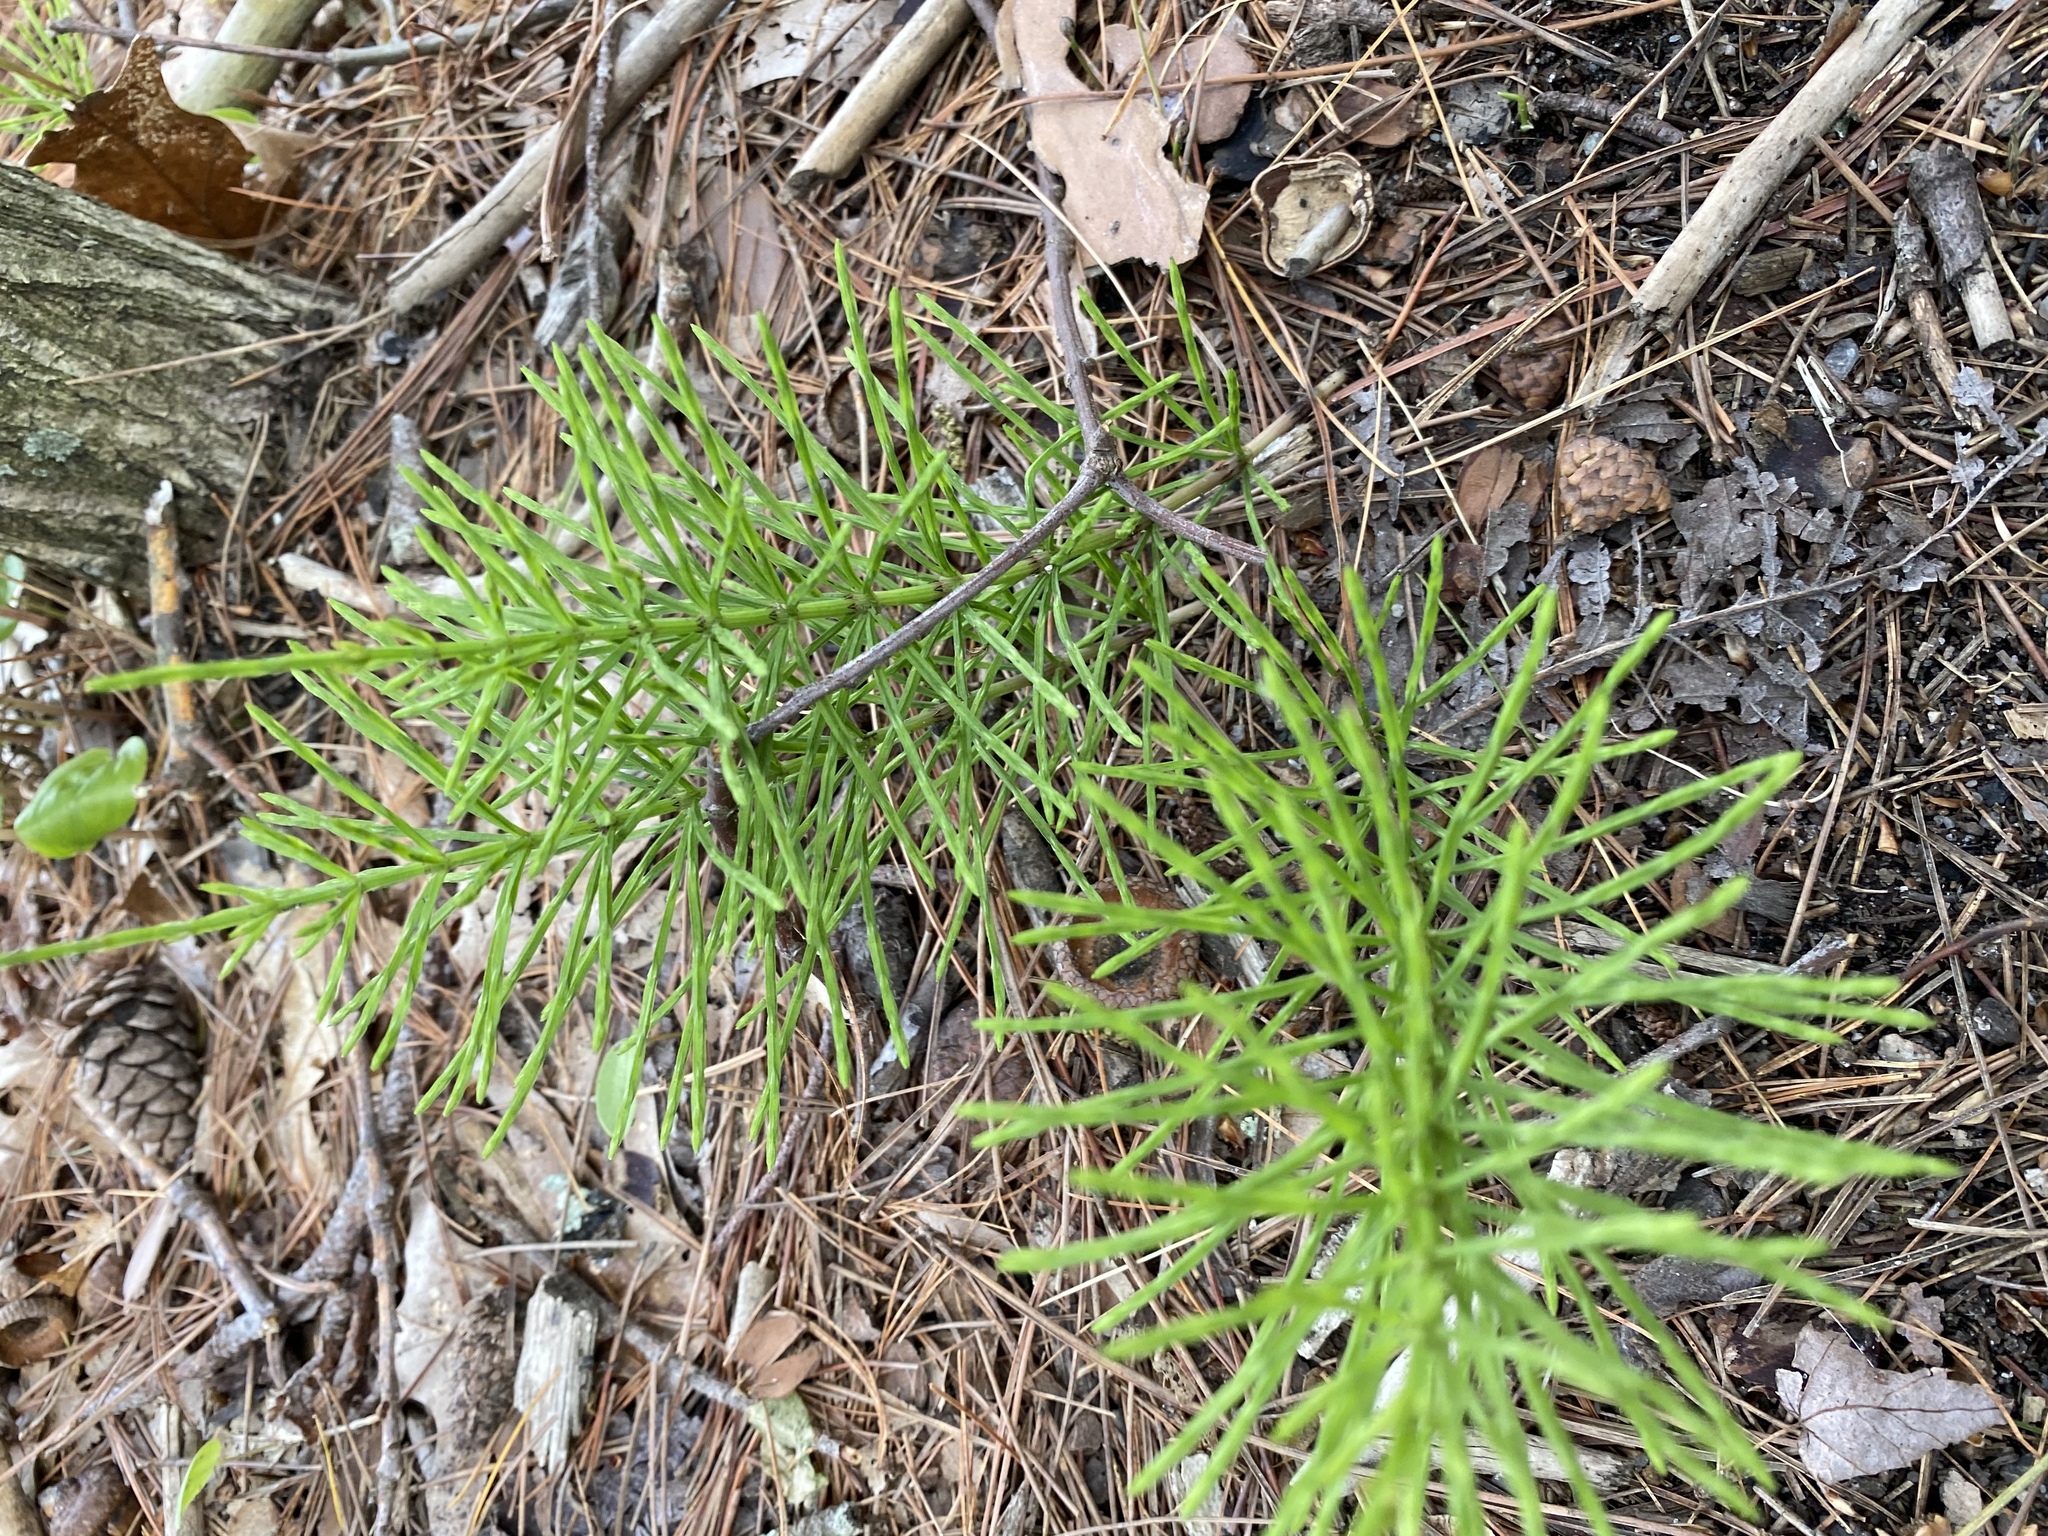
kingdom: Plantae
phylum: Tracheophyta
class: Polypodiopsida
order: Equisetales
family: Equisetaceae
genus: Equisetum
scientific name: Equisetum arvense
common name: Field horsetail
